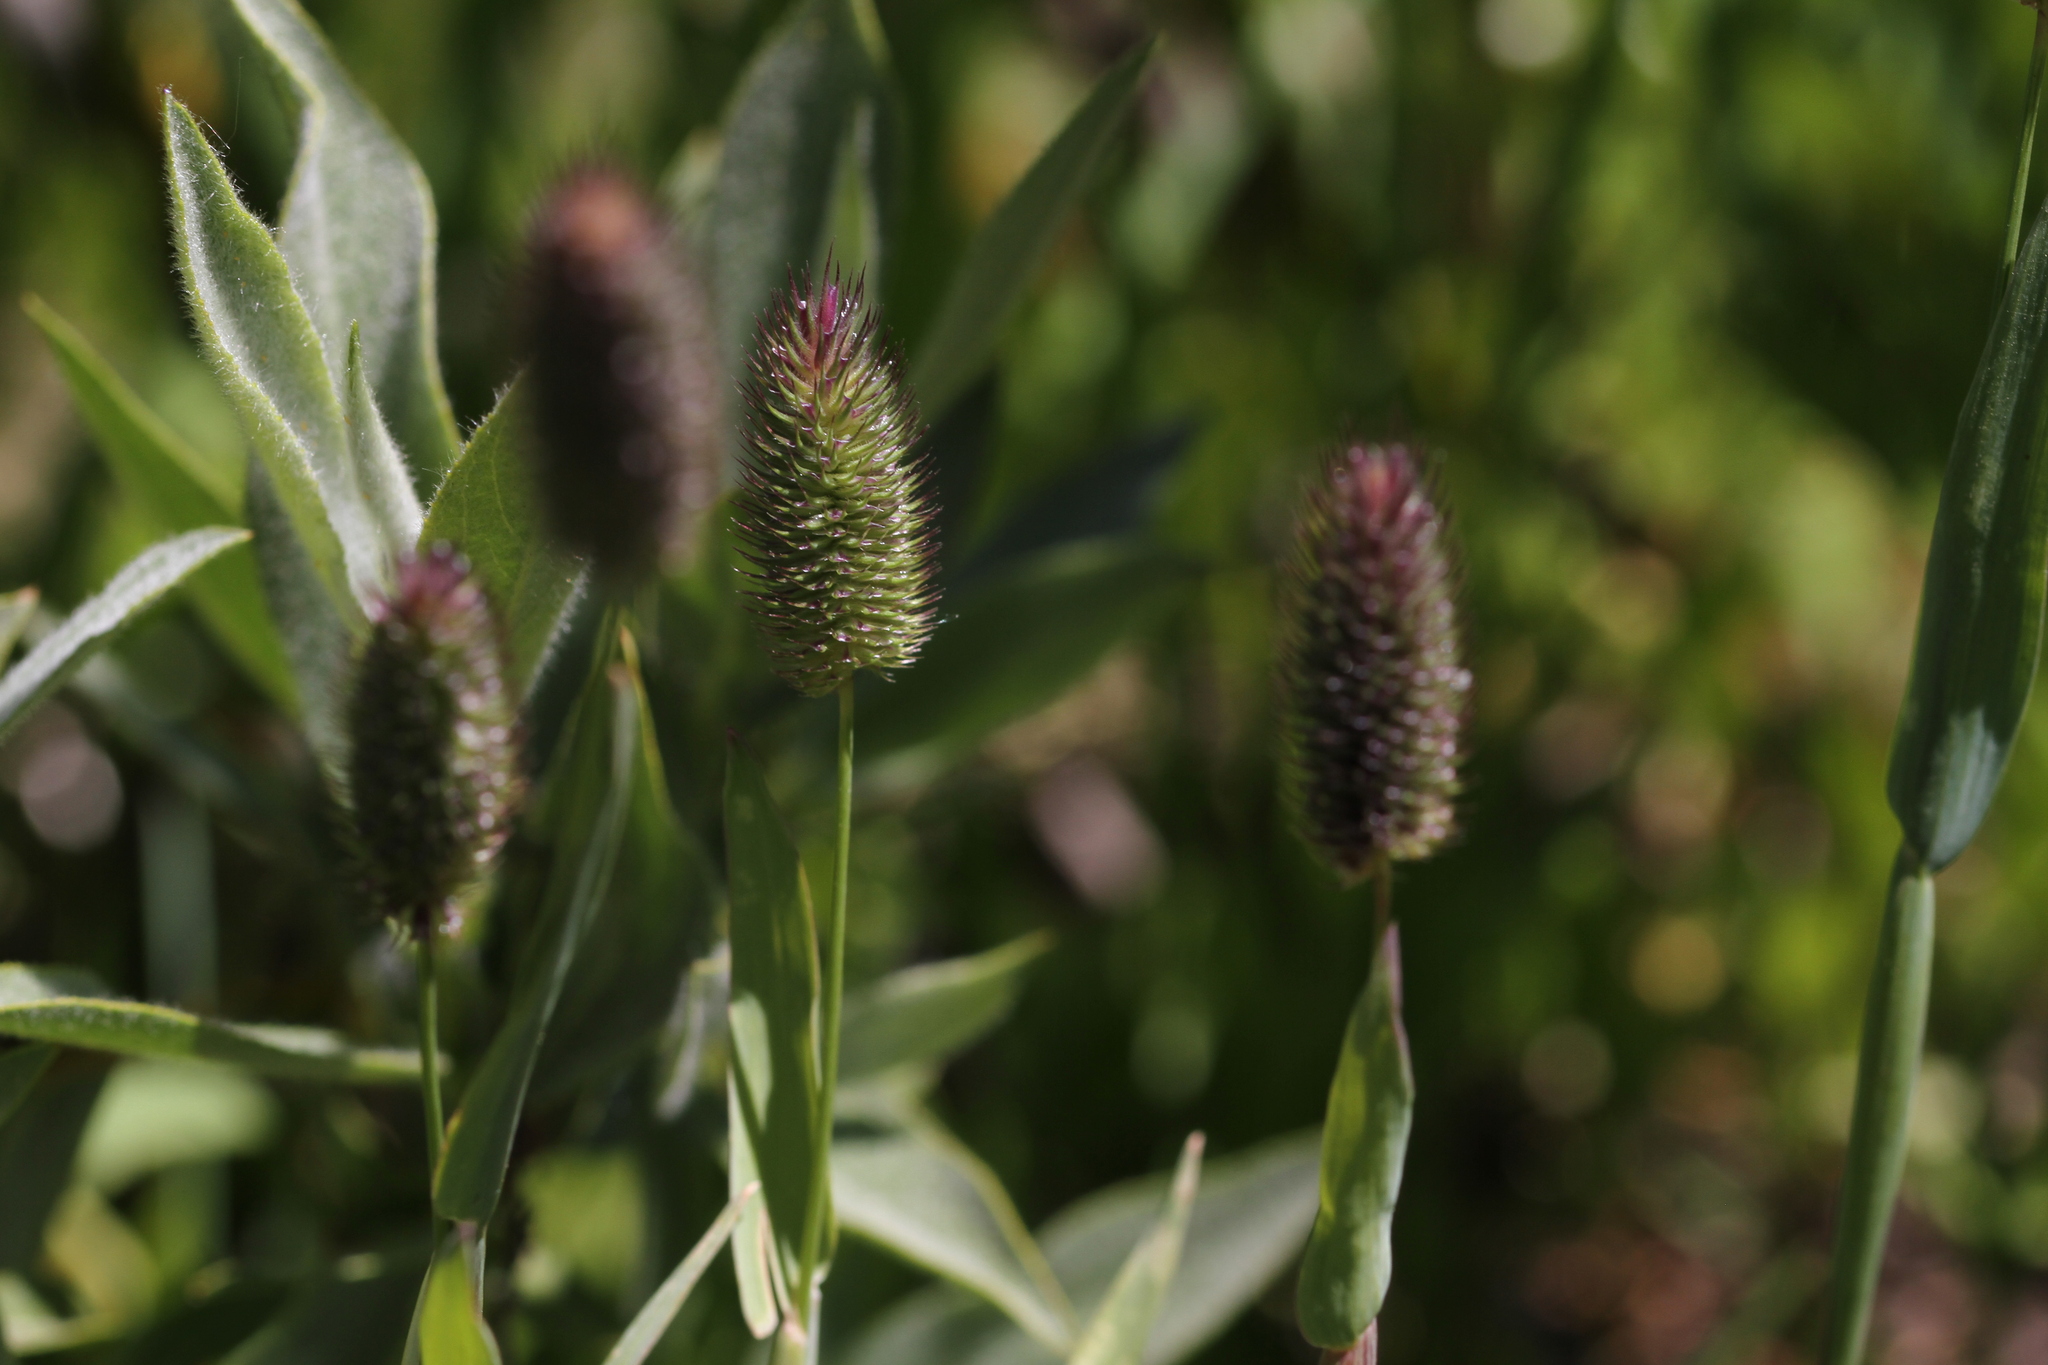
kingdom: Plantae
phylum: Tracheophyta
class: Liliopsida
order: Poales
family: Poaceae
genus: Phleum
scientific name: Phleum alpinum
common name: Alpine cat's-tail
